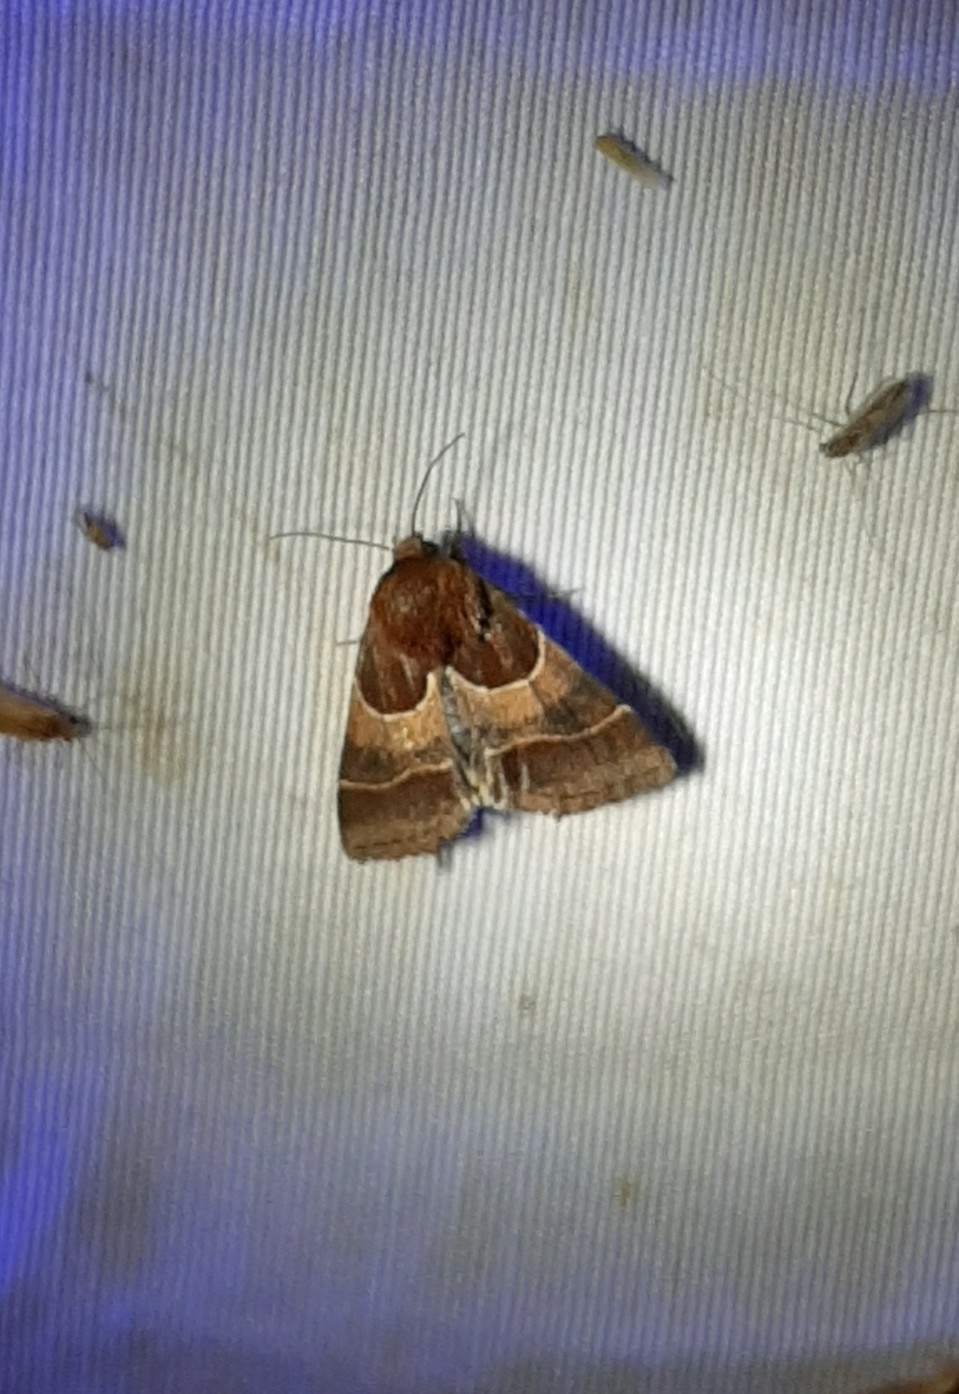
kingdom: Animalia
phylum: Arthropoda
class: Insecta
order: Lepidoptera
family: Noctuidae
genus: Schinia
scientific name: Schinia arcigera
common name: Arcigera flower moth
